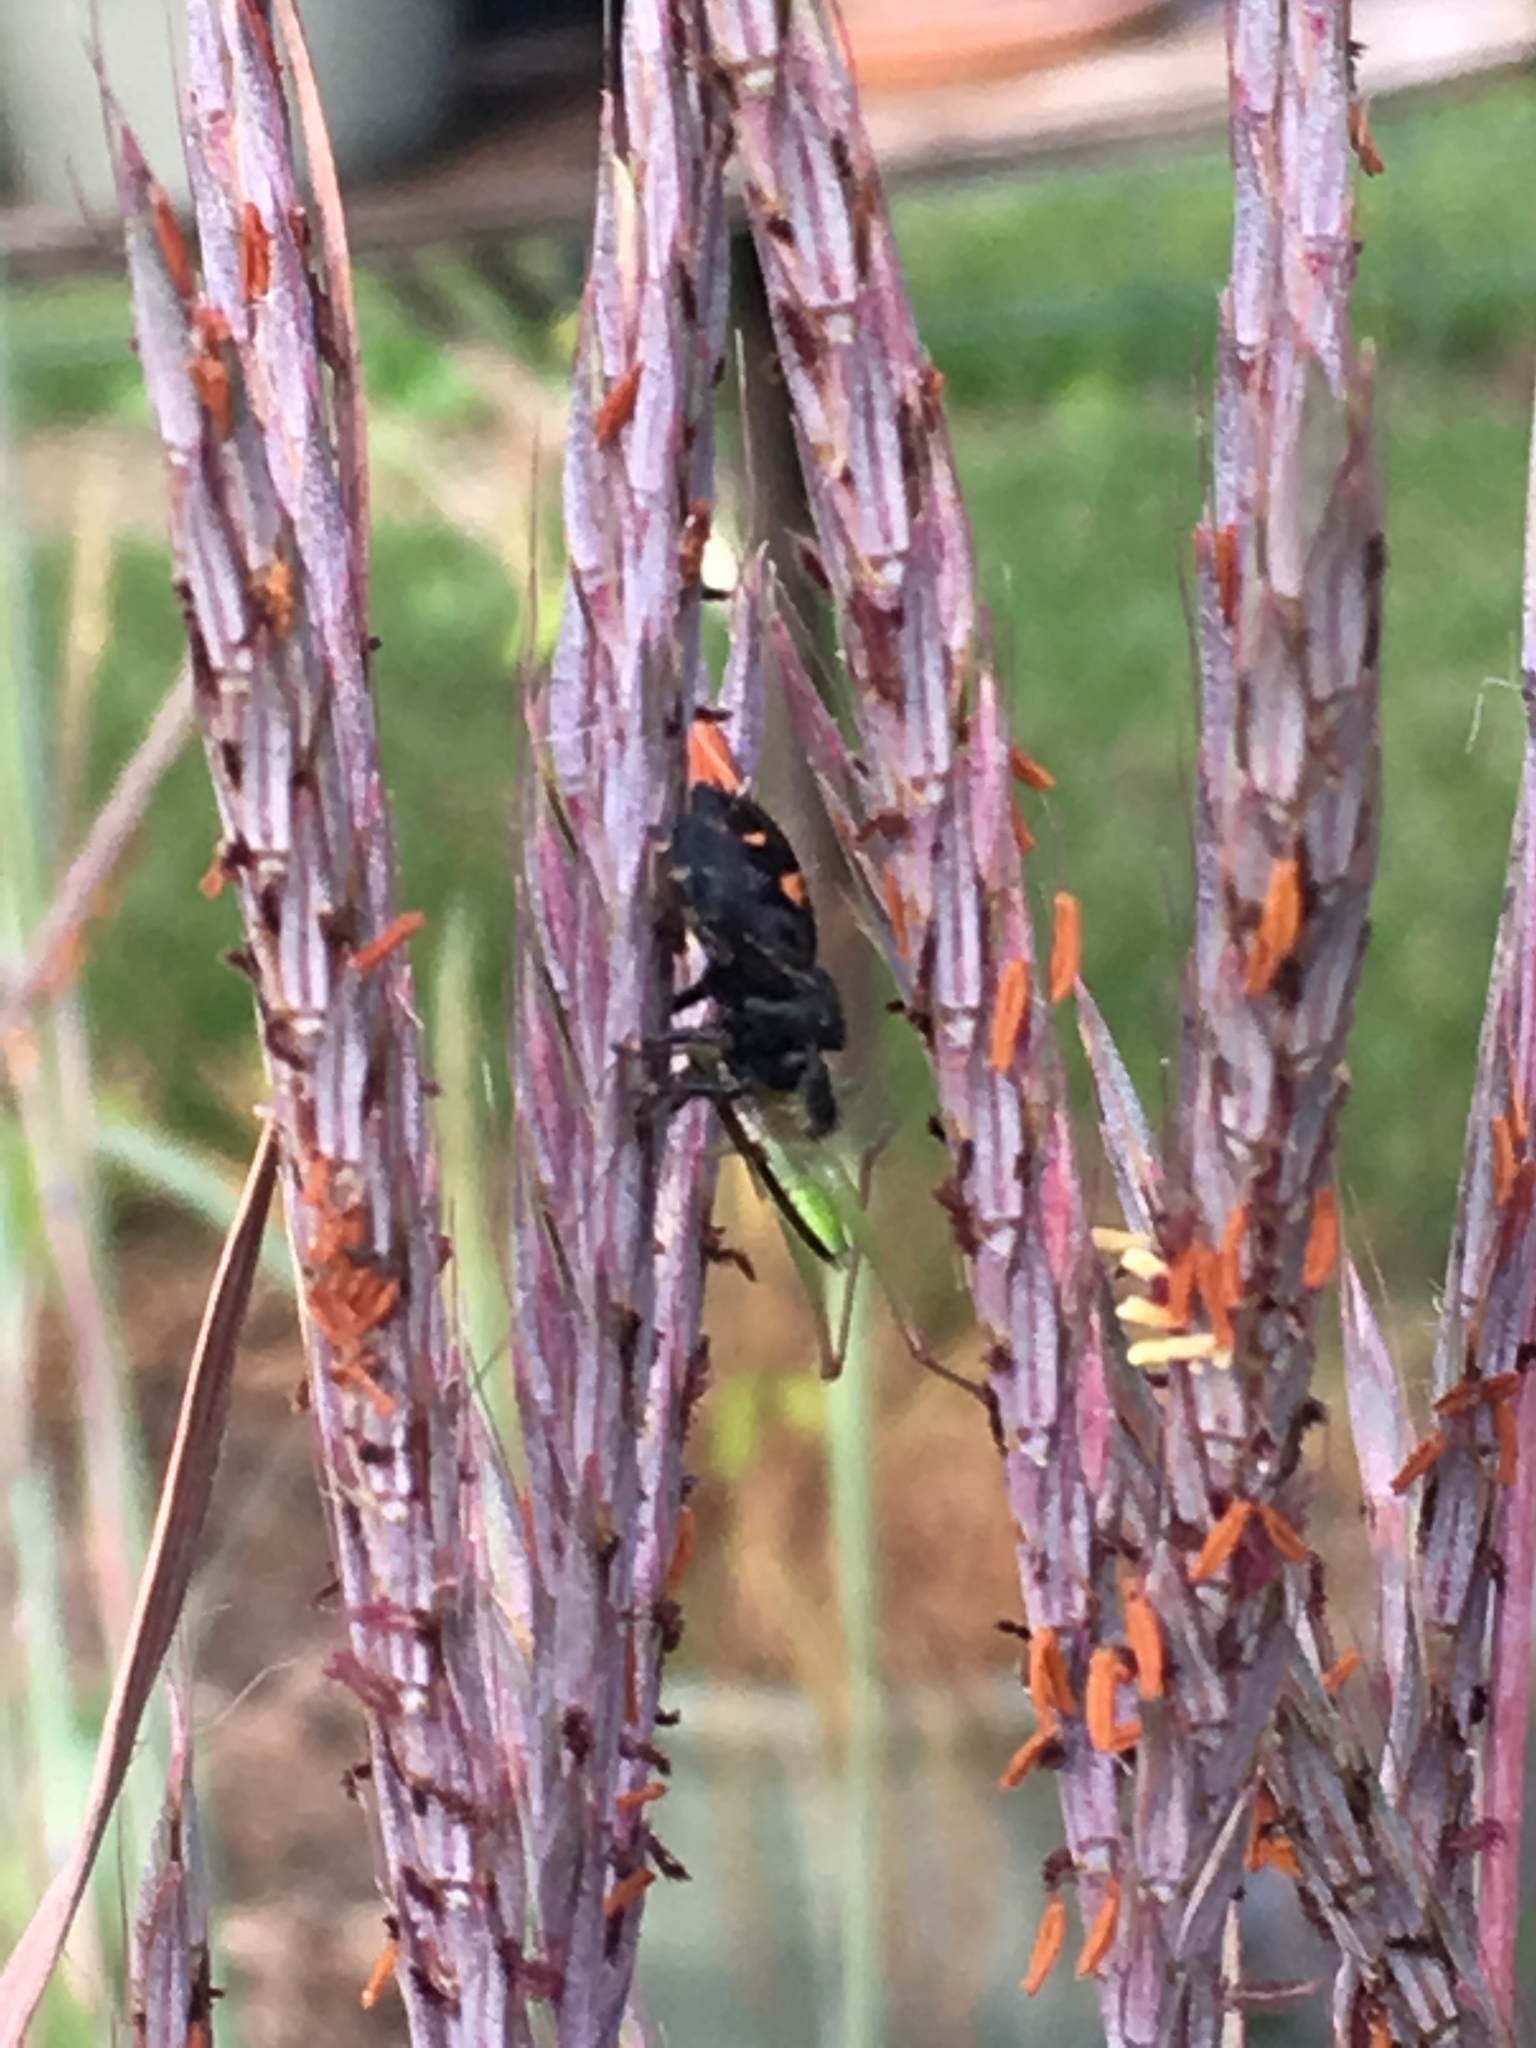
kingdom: Animalia
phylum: Arthropoda
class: Arachnida
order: Araneae
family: Salticidae
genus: Phidippus
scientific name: Phidippus audax
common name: Bold jumper
